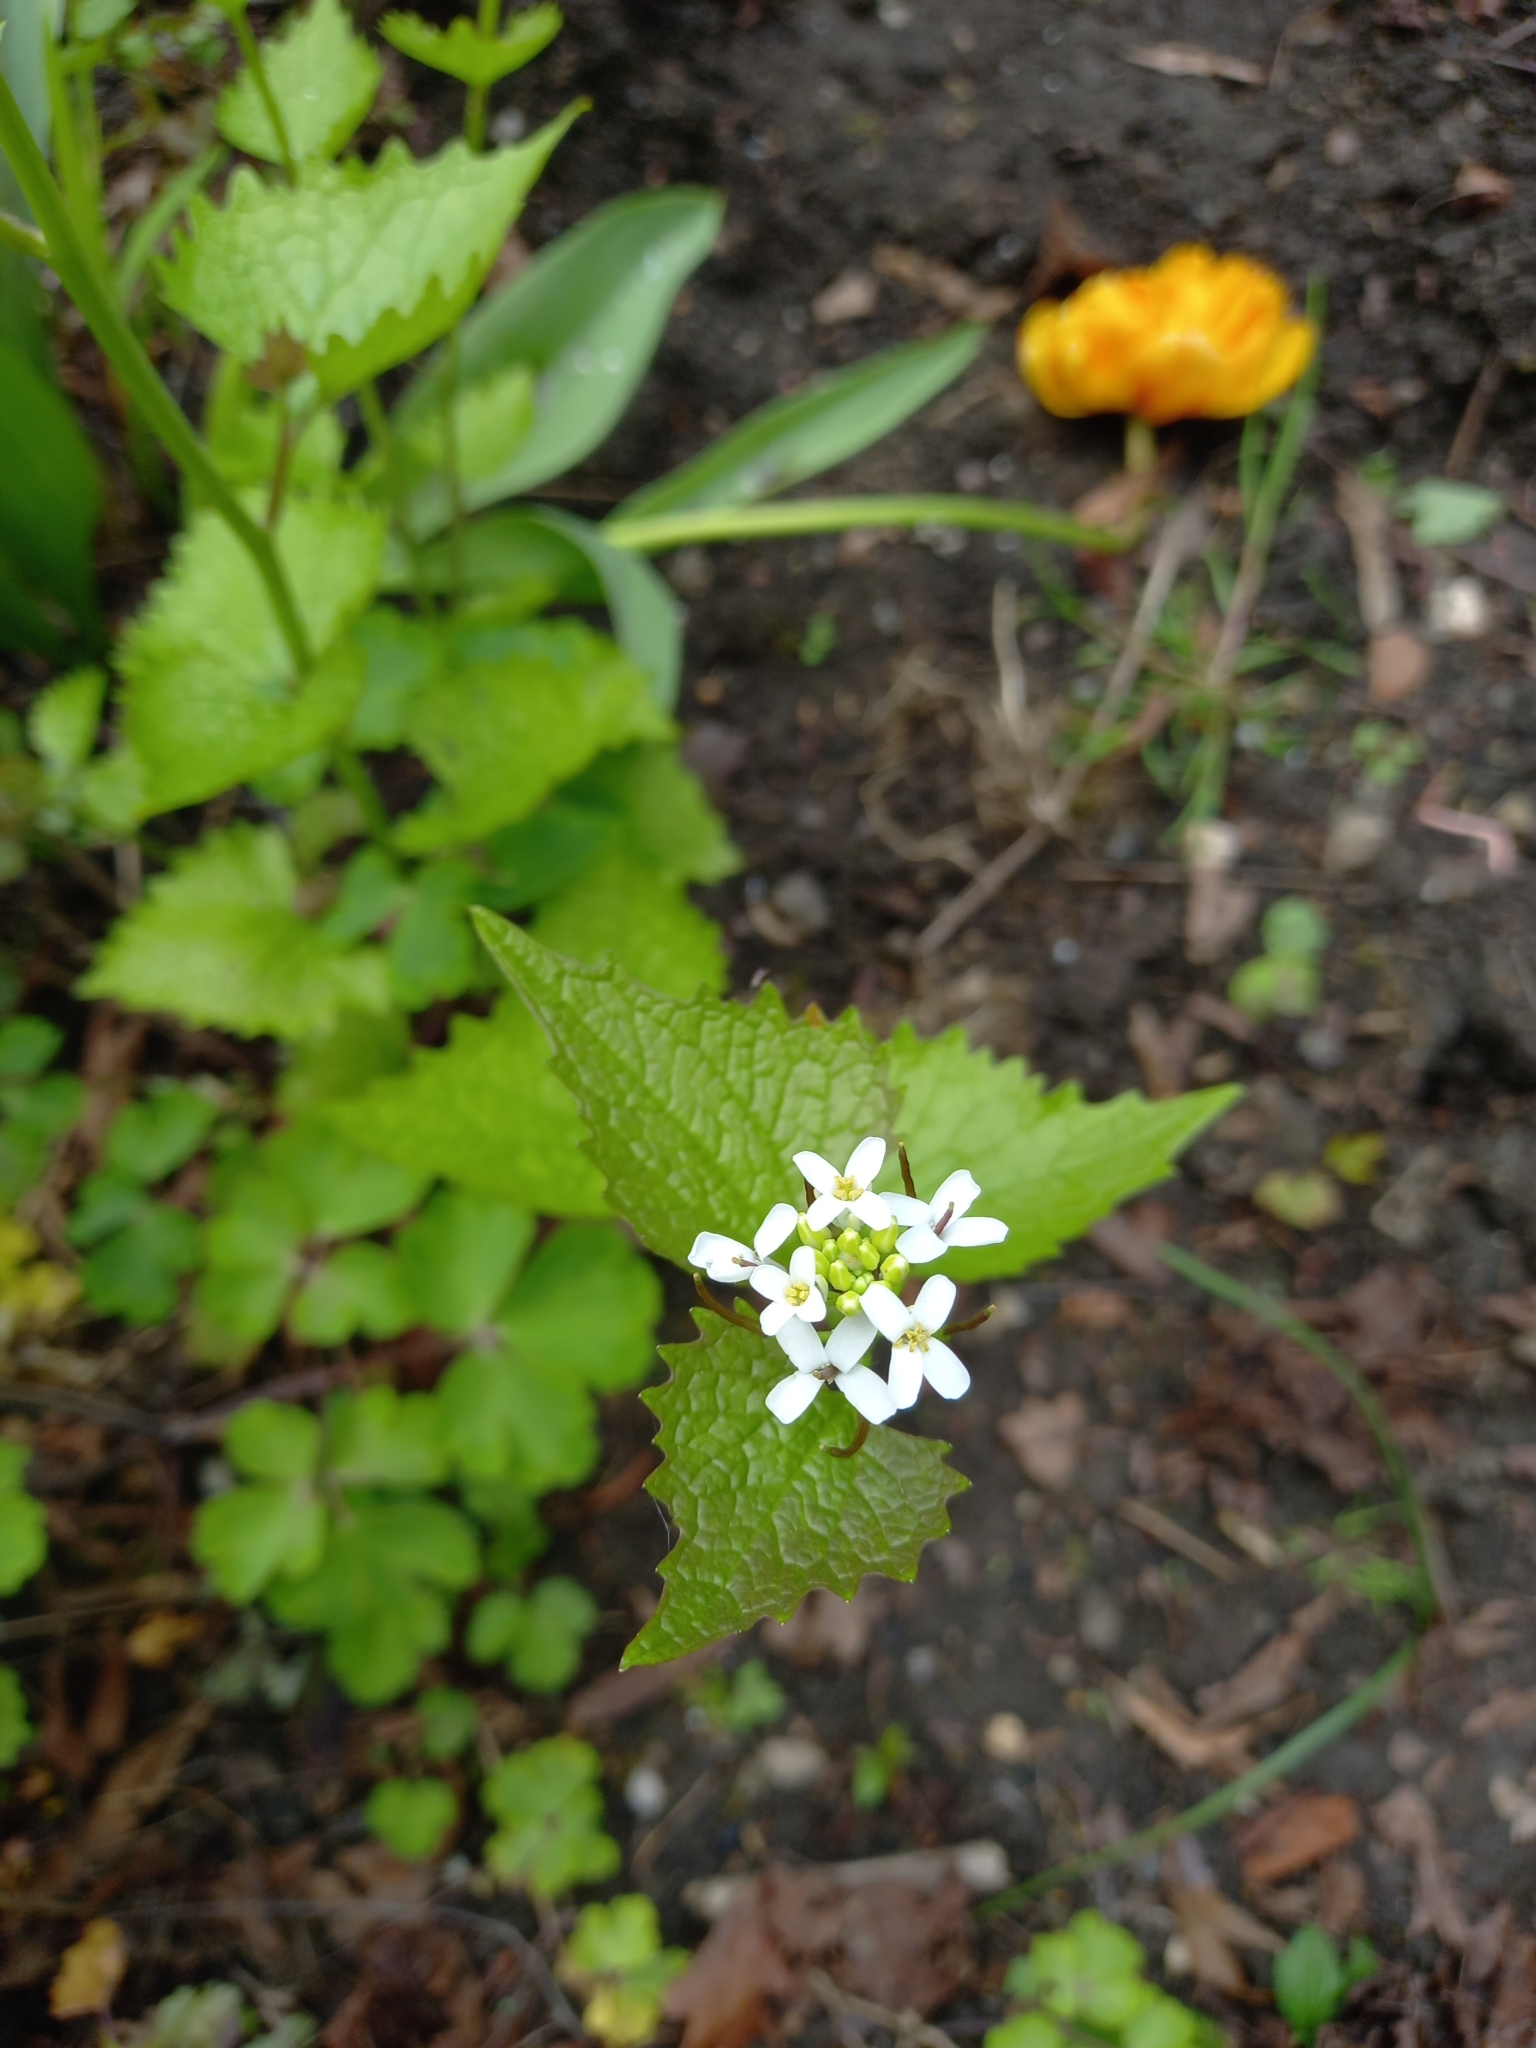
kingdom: Plantae
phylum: Tracheophyta
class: Magnoliopsida
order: Brassicales
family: Brassicaceae
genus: Alliaria
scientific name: Alliaria petiolata
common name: Garlic mustard
